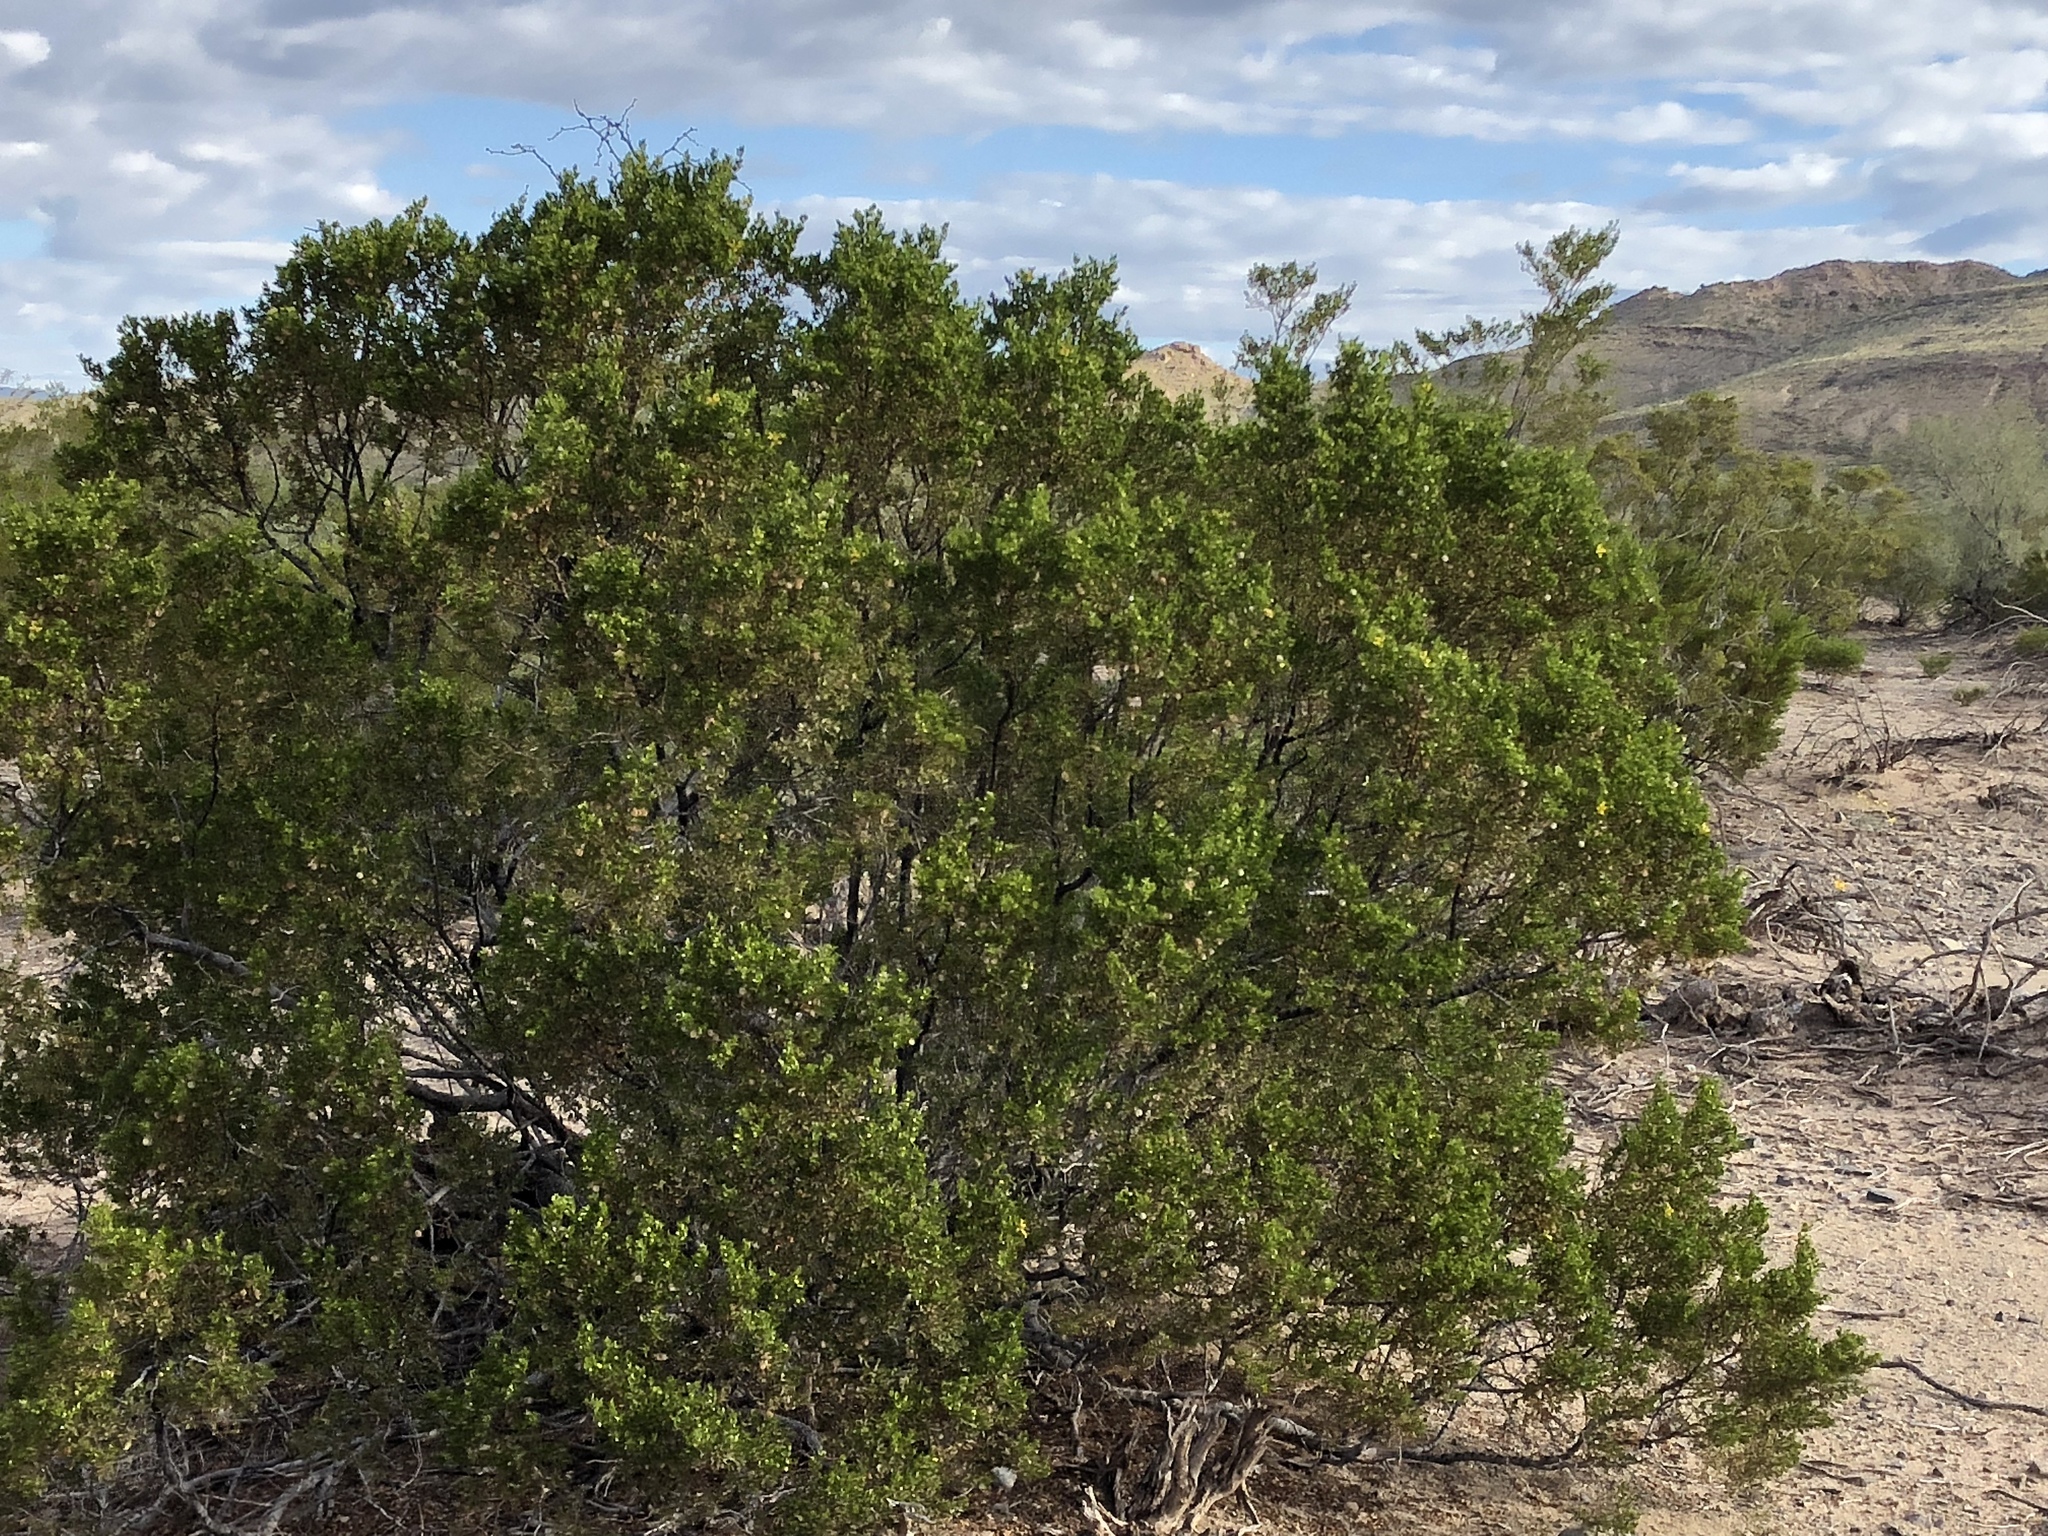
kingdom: Plantae
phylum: Tracheophyta
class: Magnoliopsida
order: Zygophyllales
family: Zygophyllaceae
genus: Larrea
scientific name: Larrea tridentata
